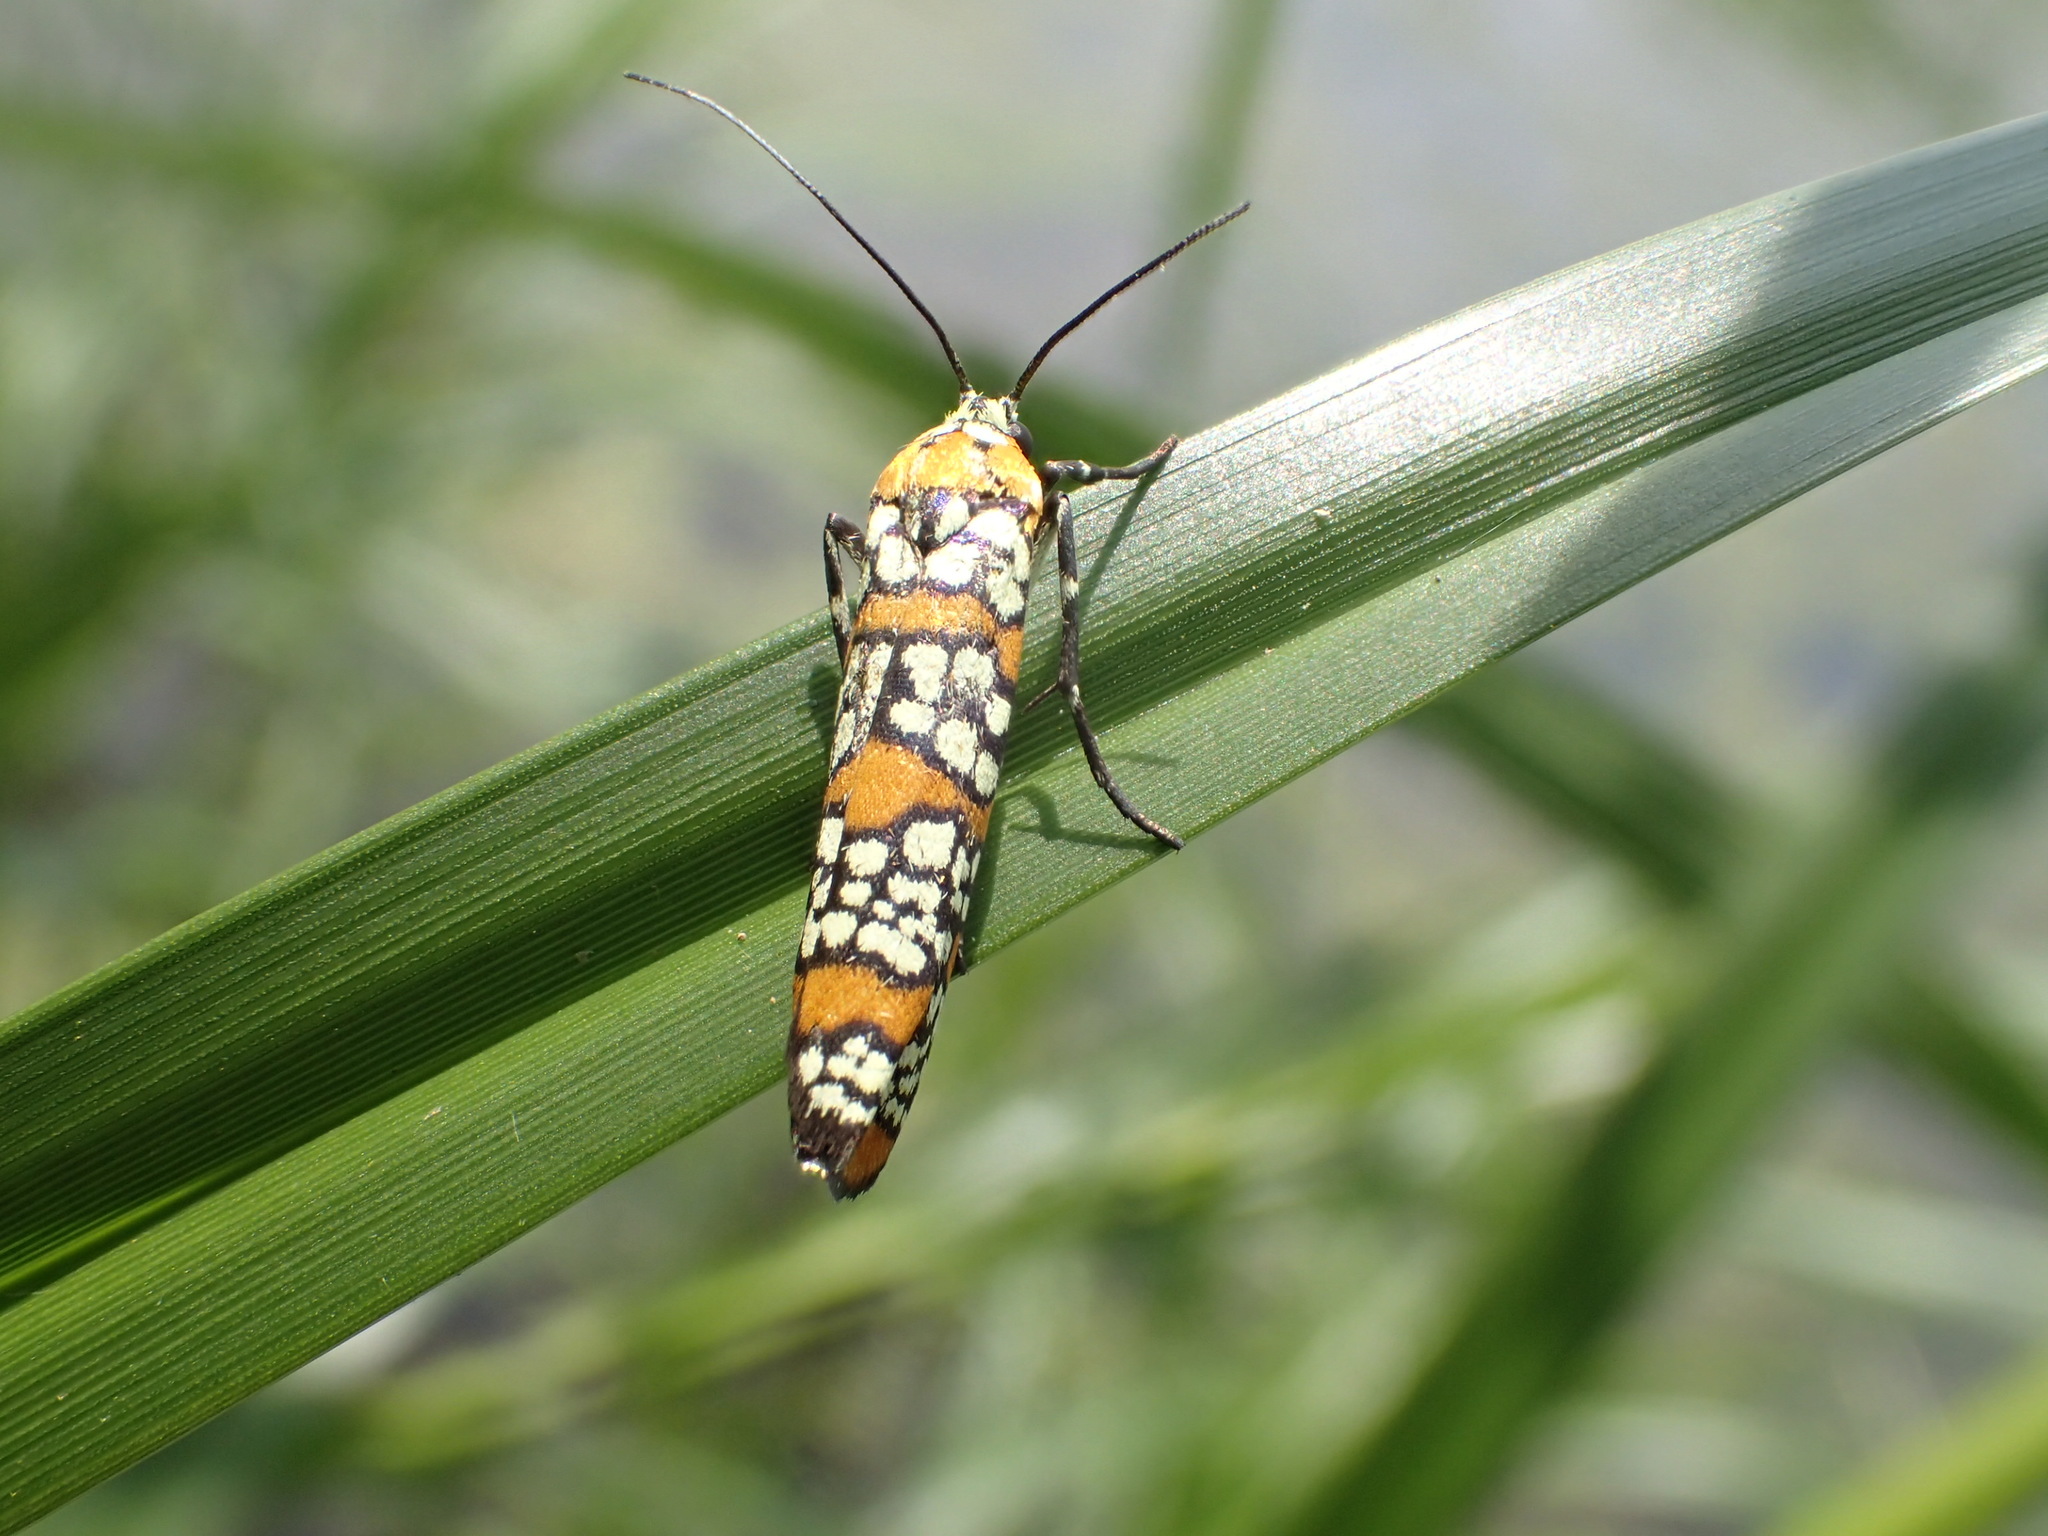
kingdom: Animalia
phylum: Arthropoda
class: Insecta
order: Lepidoptera
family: Attevidae
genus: Atteva
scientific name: Atteva punctella
